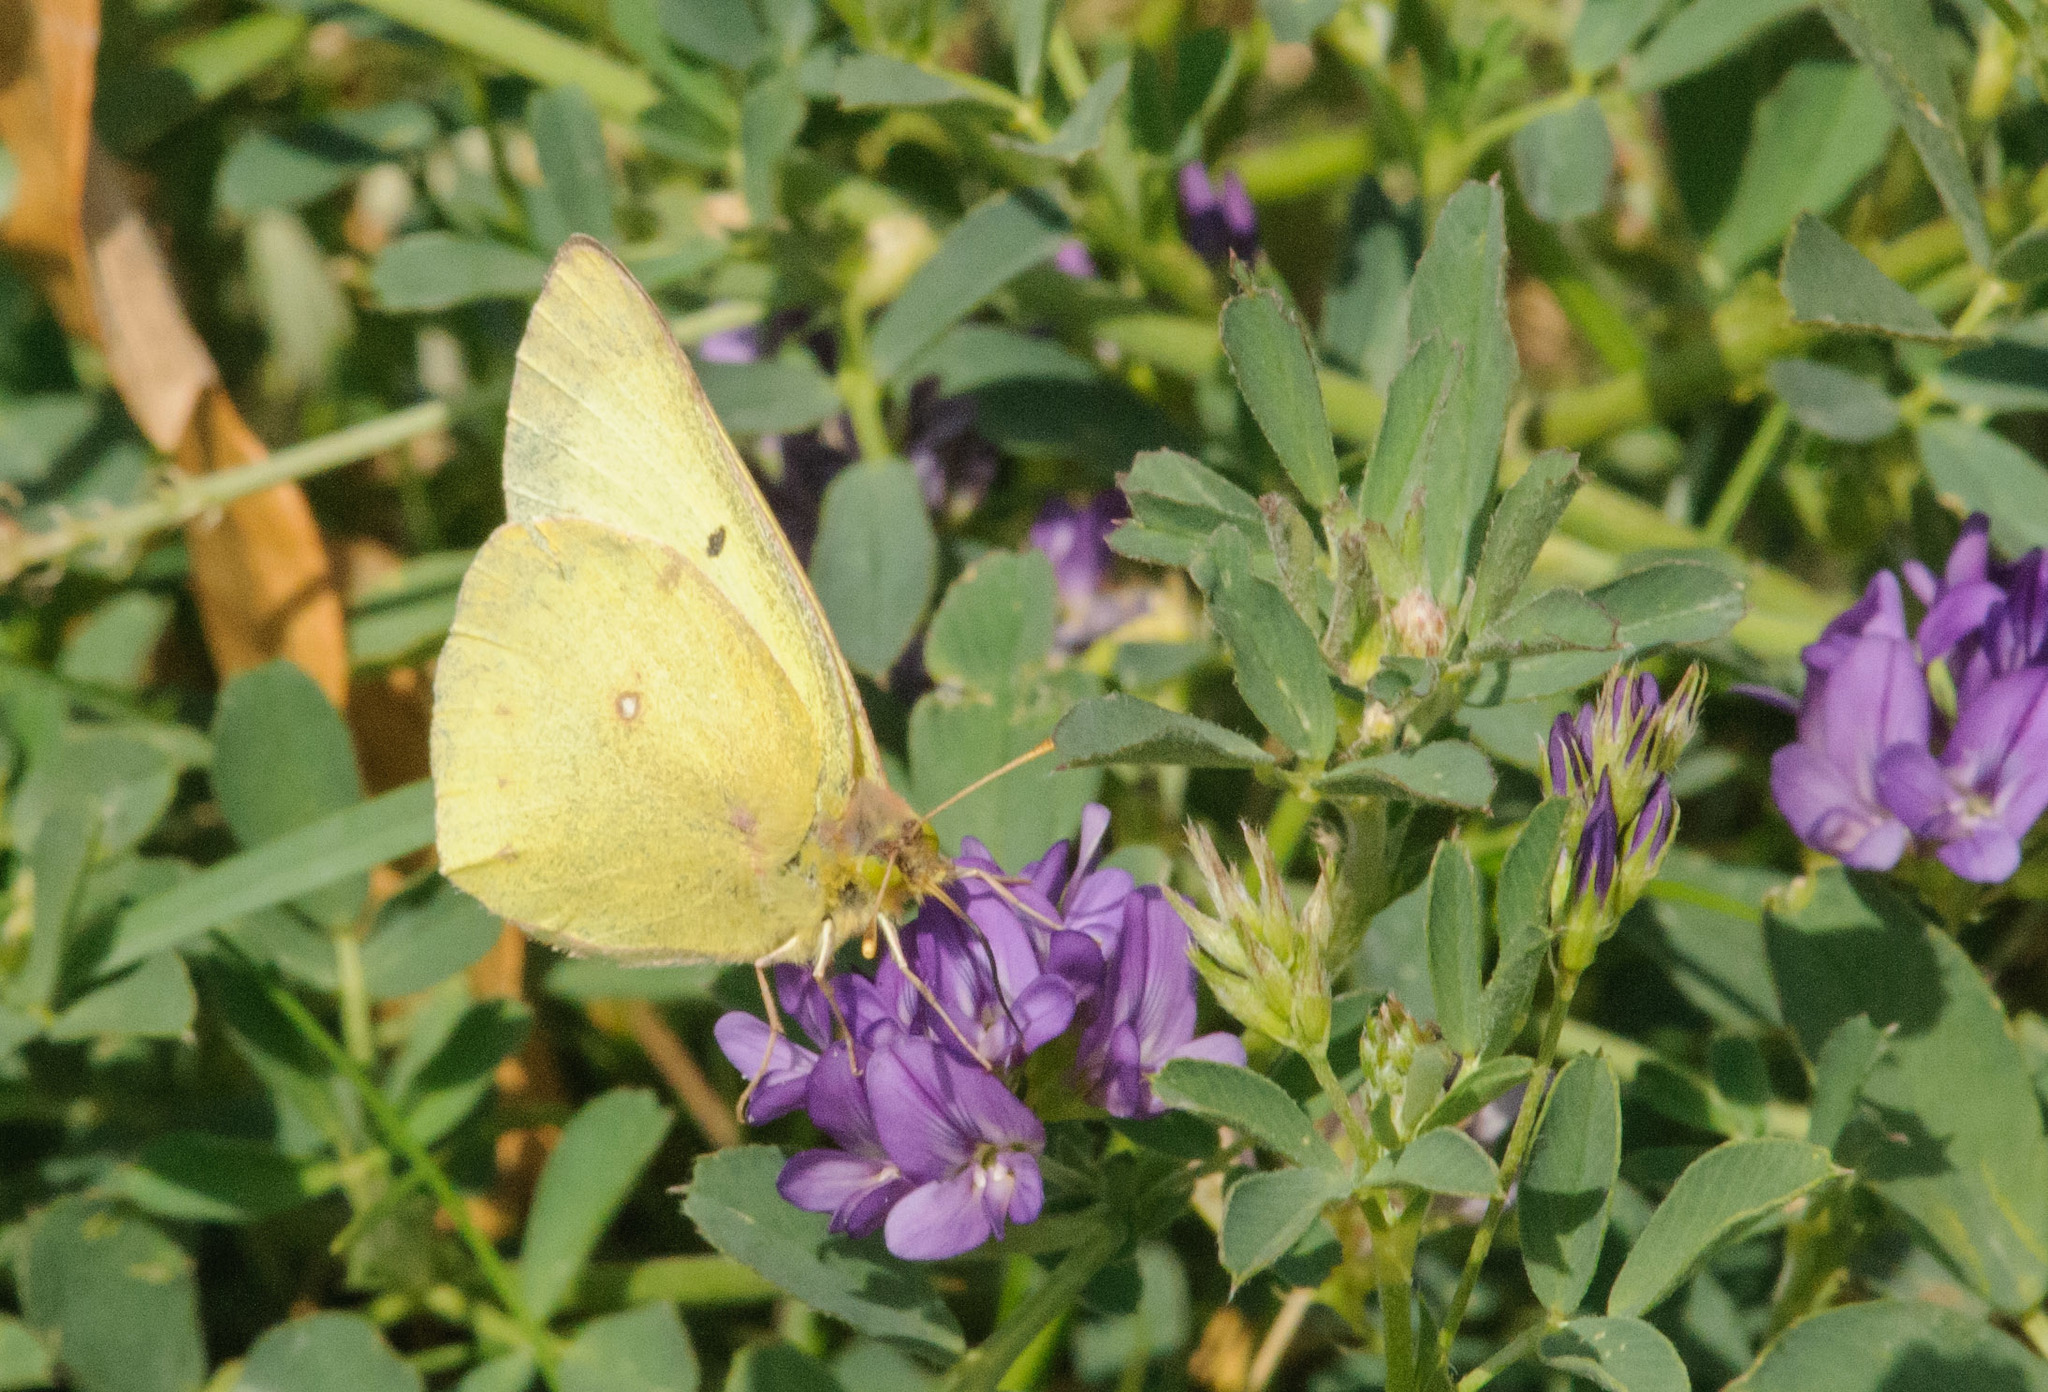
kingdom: Animalia
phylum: Arthropoda
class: Insecta
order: Lepidoptera
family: Pieridae
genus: Colias
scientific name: Colias philodice
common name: Clouded sulphur
